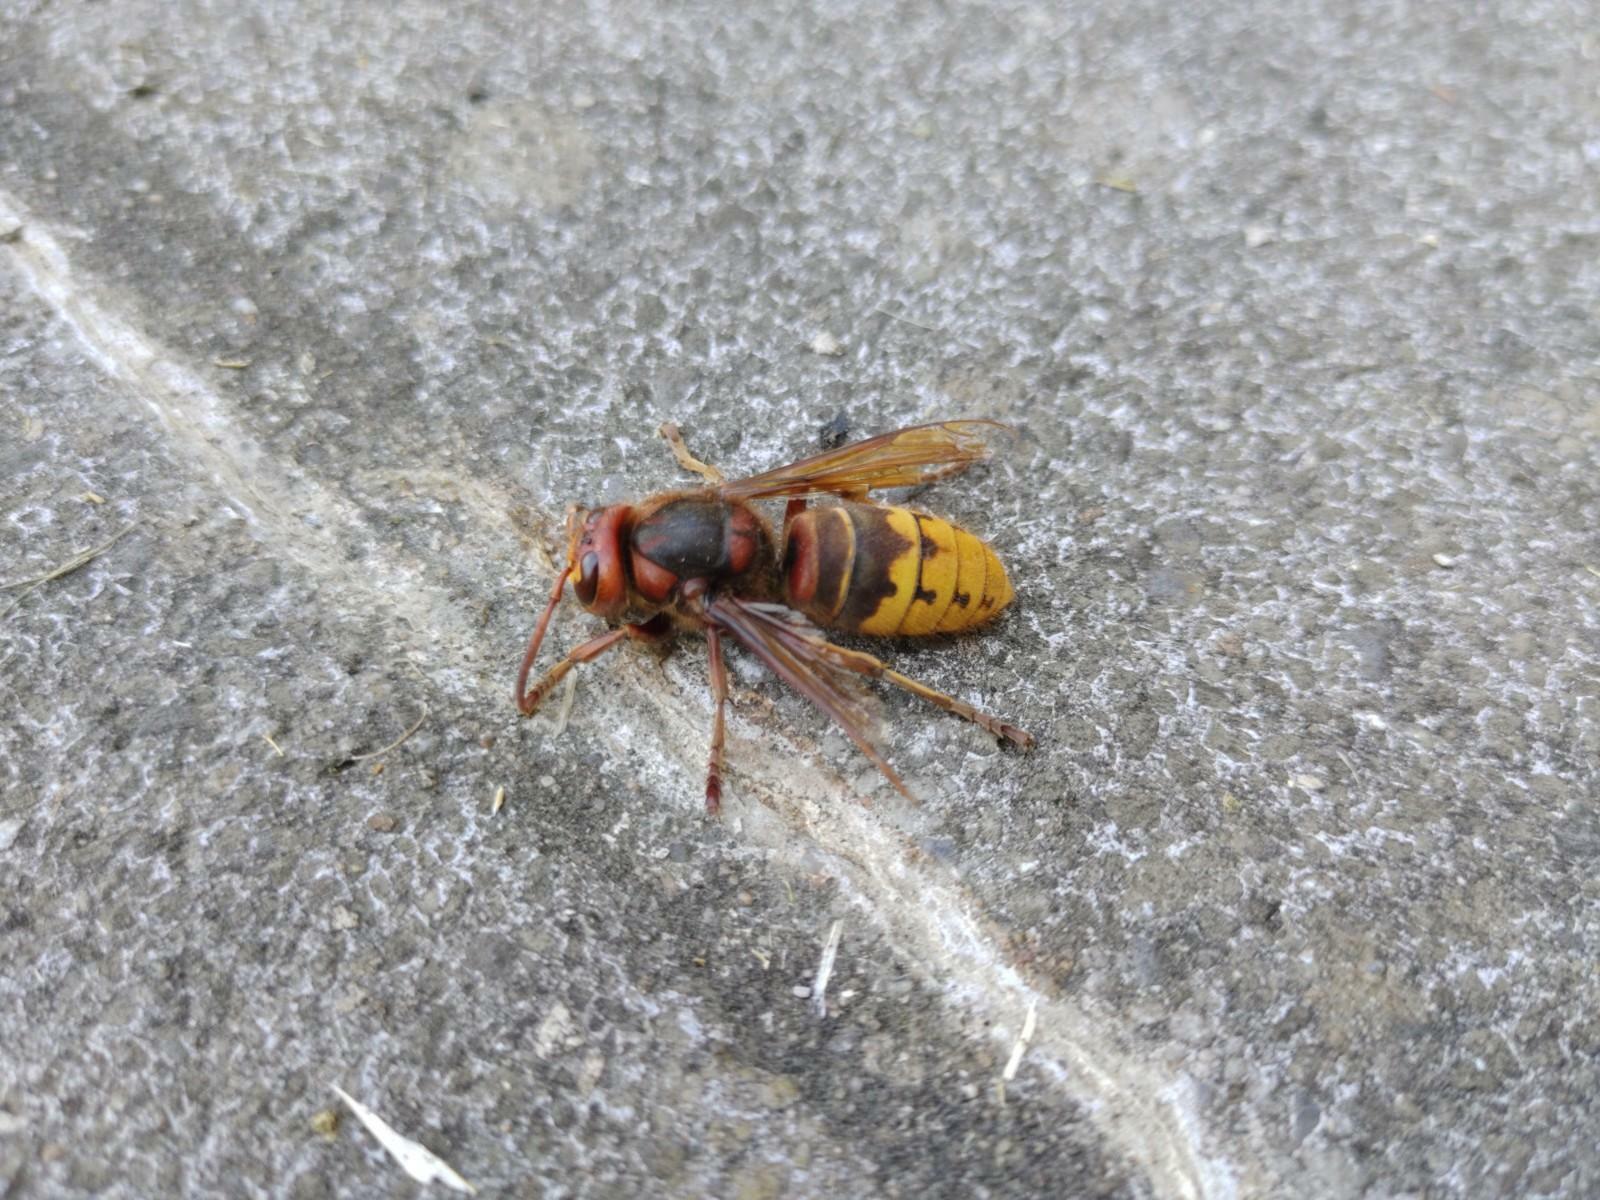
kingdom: Animalia
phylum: Arthropoda
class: Insecta
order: Hymenoptera
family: Vespidae
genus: Vespa
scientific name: Vespa crabro
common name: Hornet
